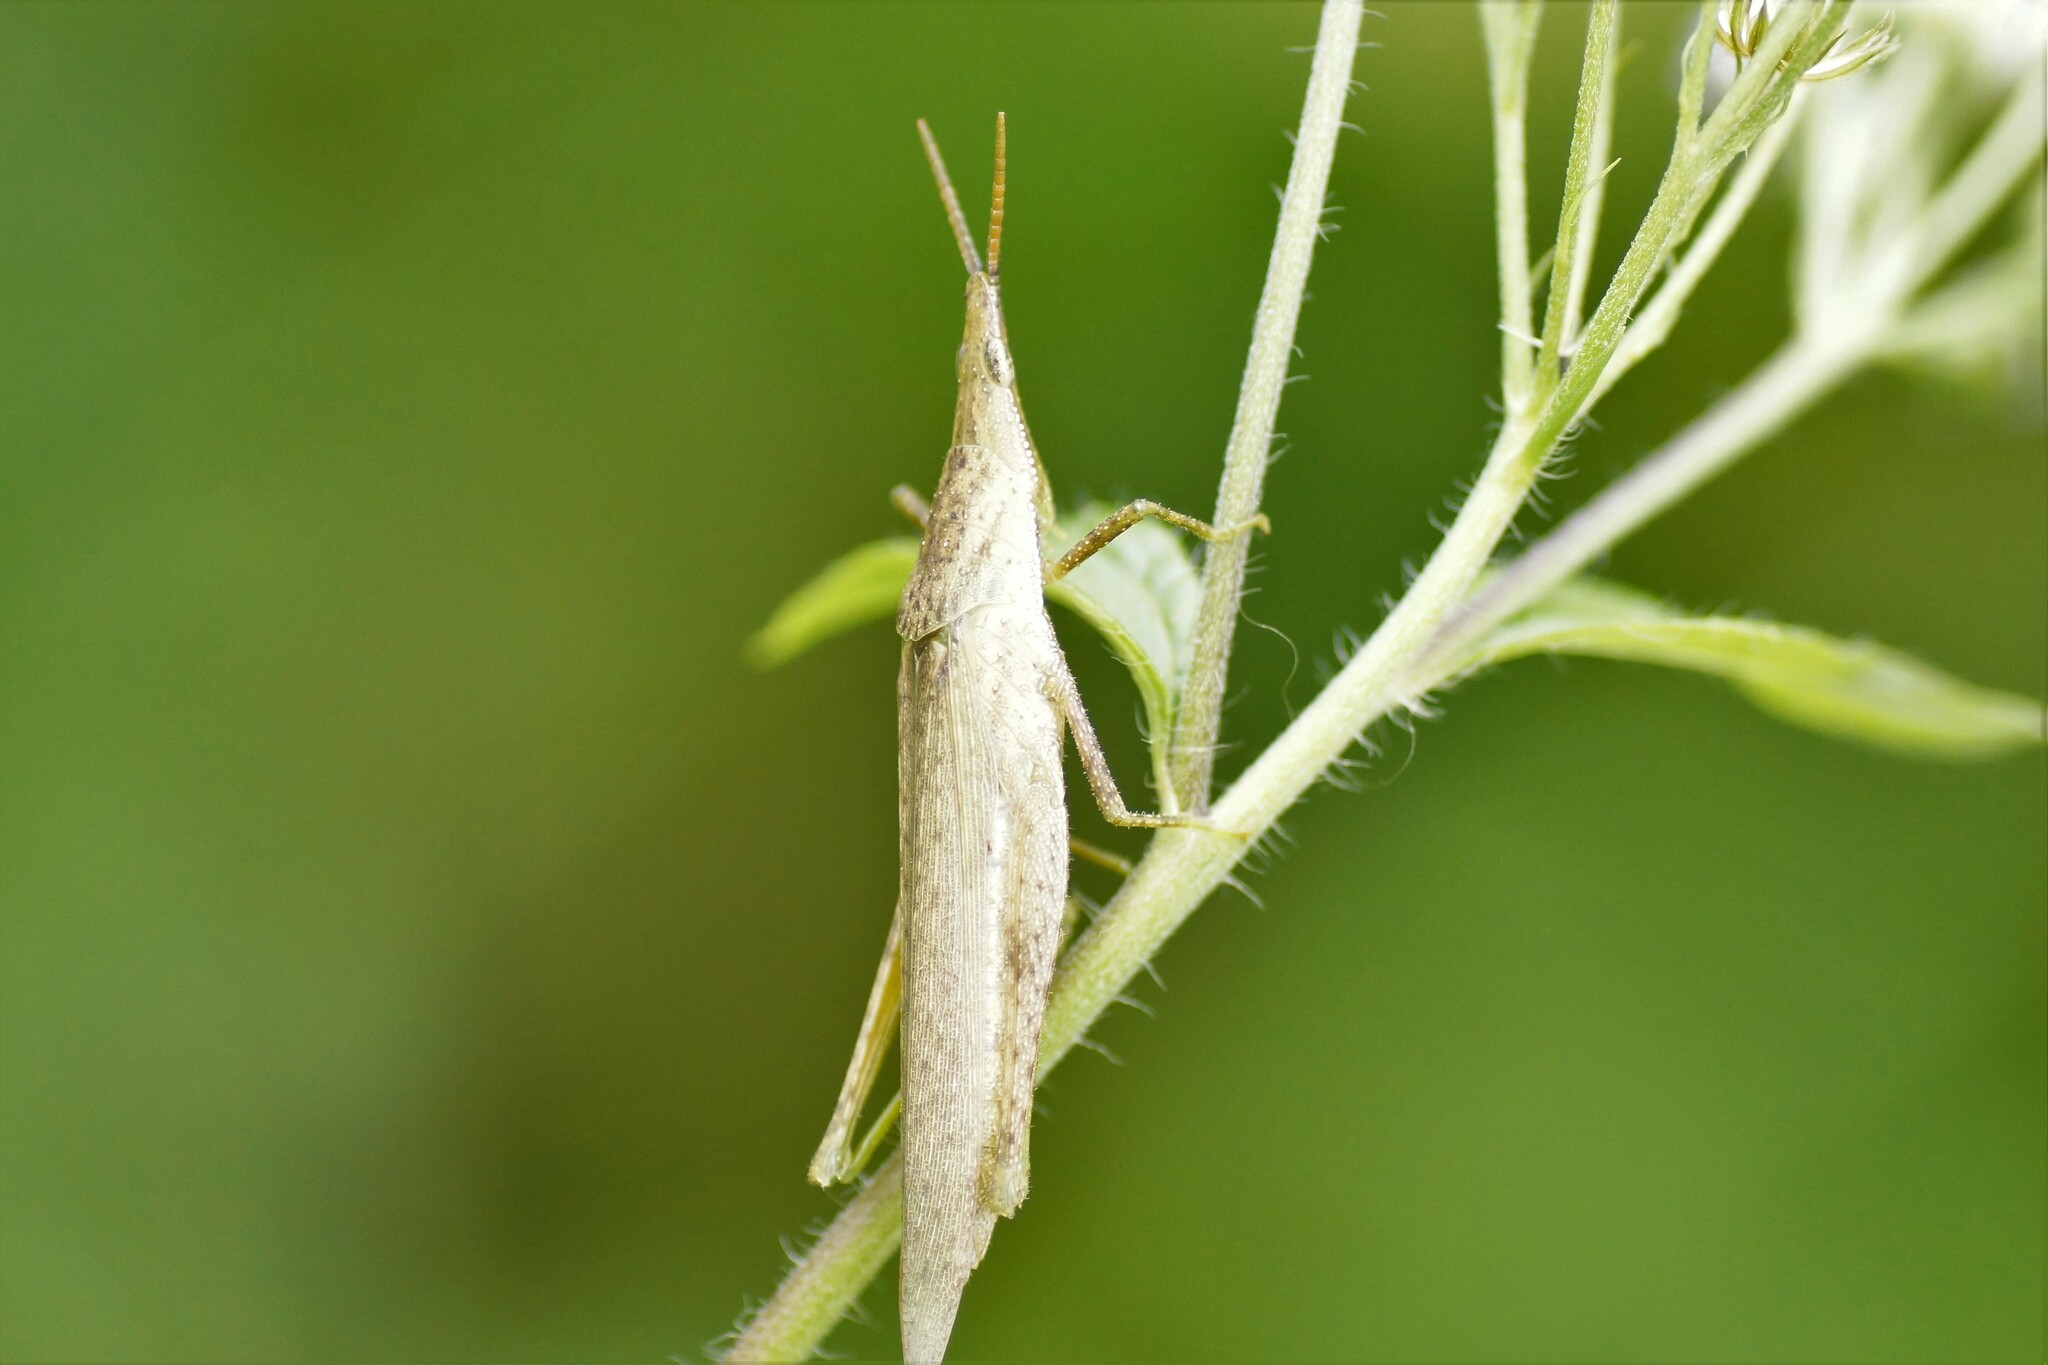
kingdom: Animalia
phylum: Arthropoda
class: Insecta
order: Orthoptera
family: Pyrgomorphidae
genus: Atractomorpha
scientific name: Atractomorpha similis
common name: Northern grass pyrgomorph
